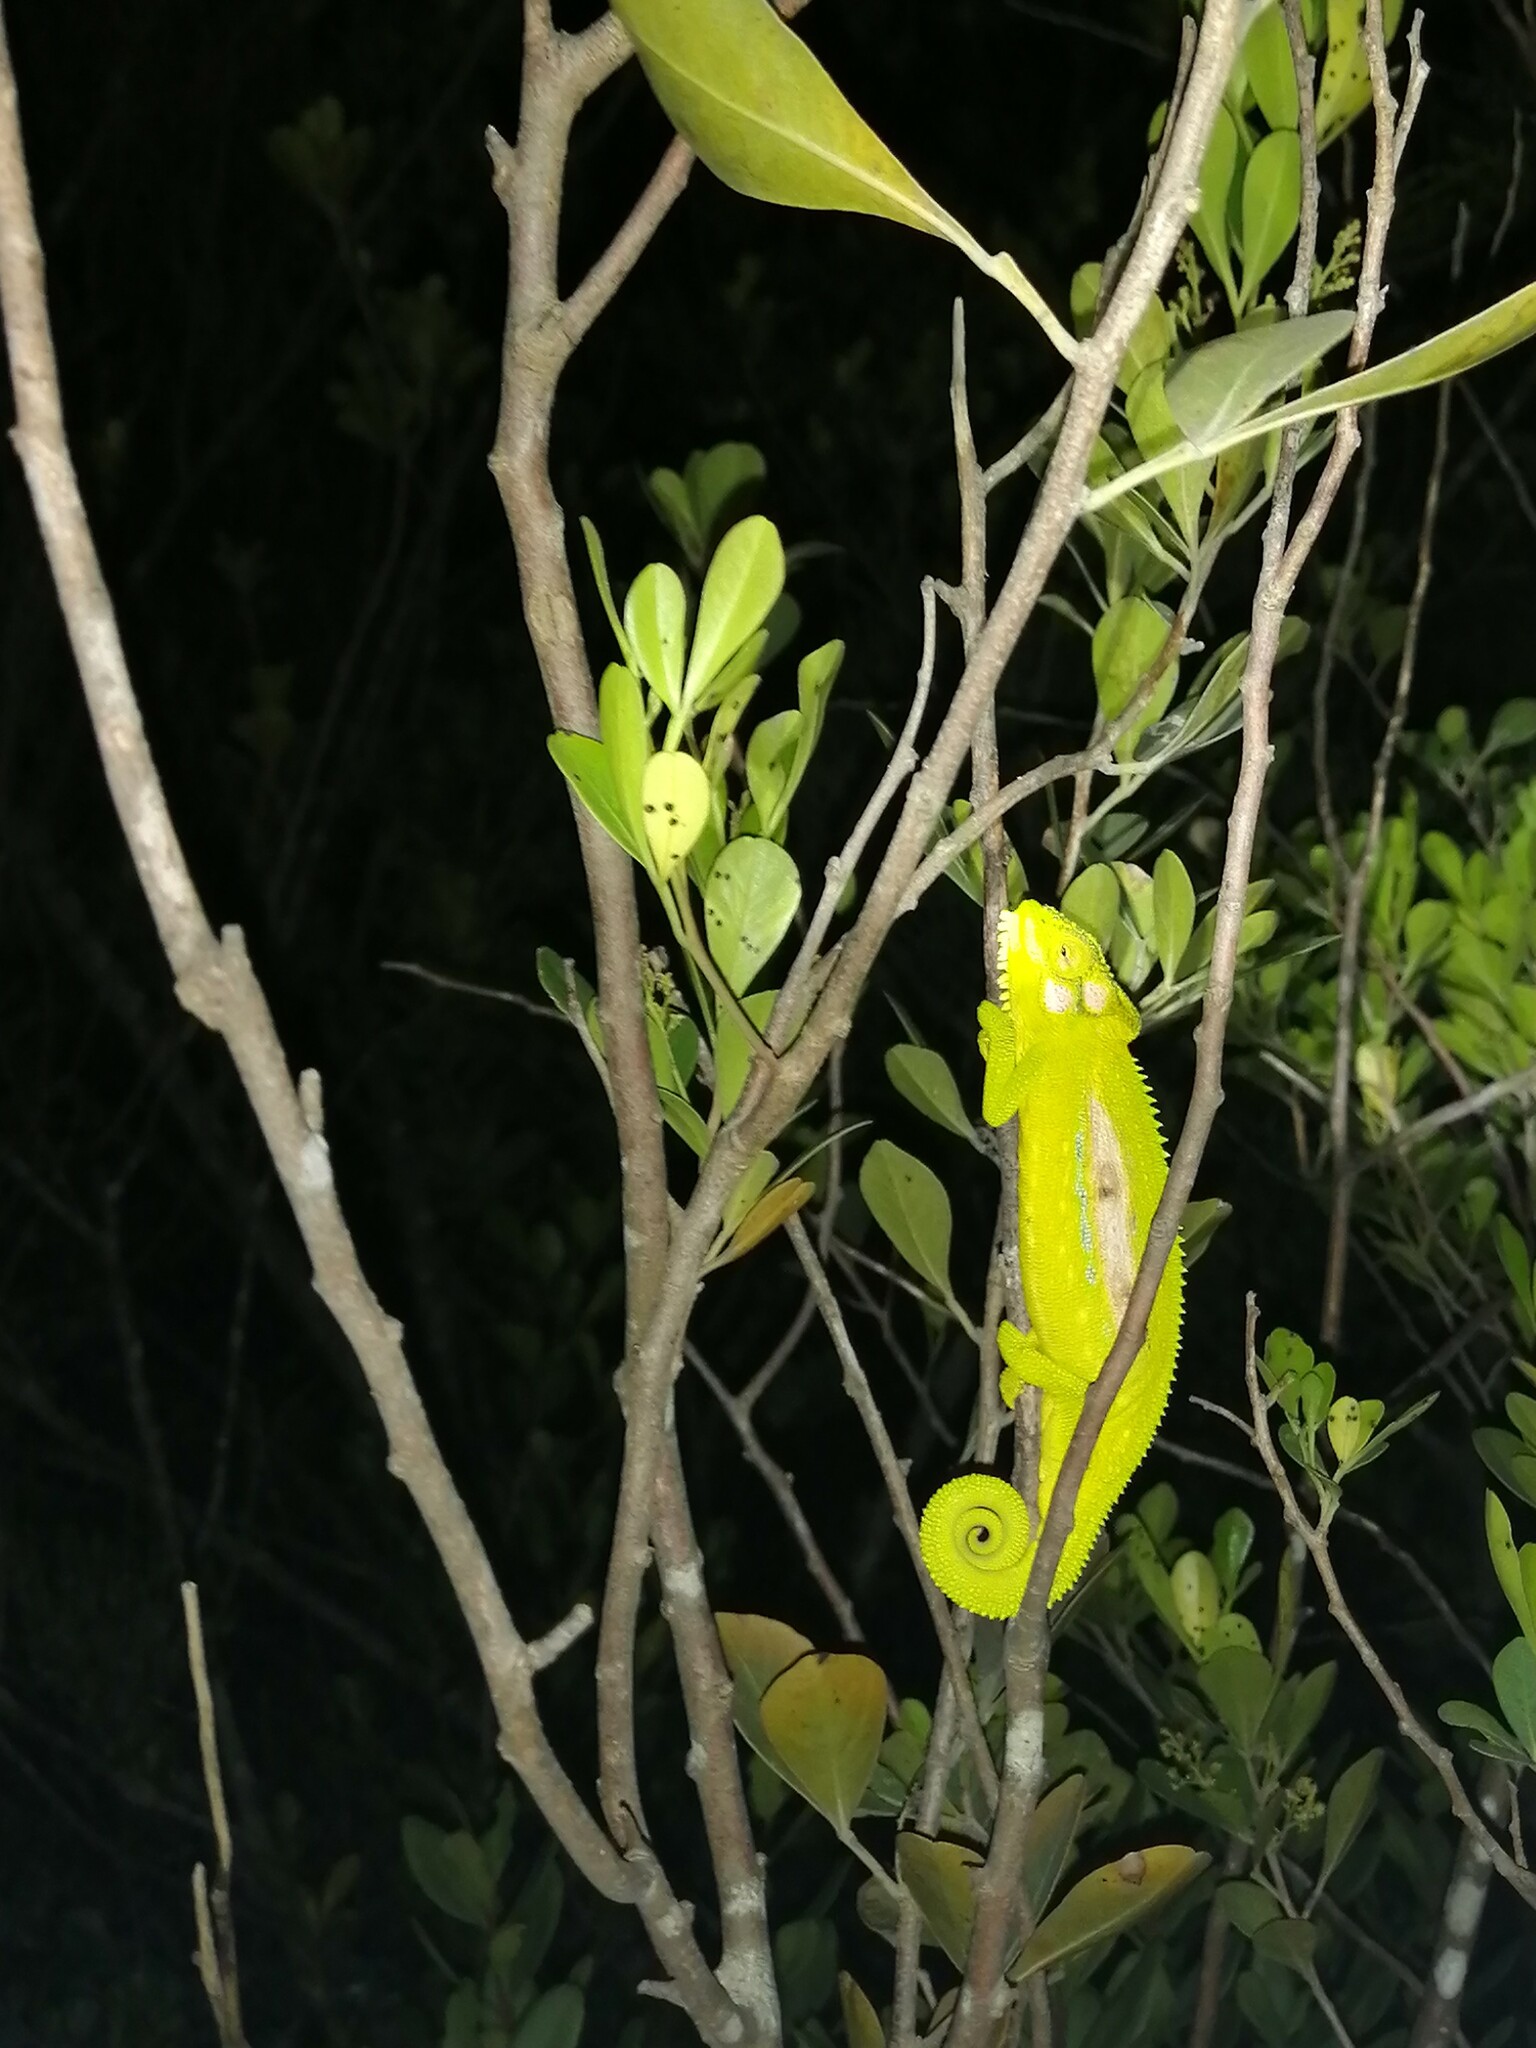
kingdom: Animalia
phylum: Chordata
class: Squamata
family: Chamaeleonidae
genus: Bradypodion
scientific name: Bradypodion pumilum
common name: Cape dwarf chameleon
